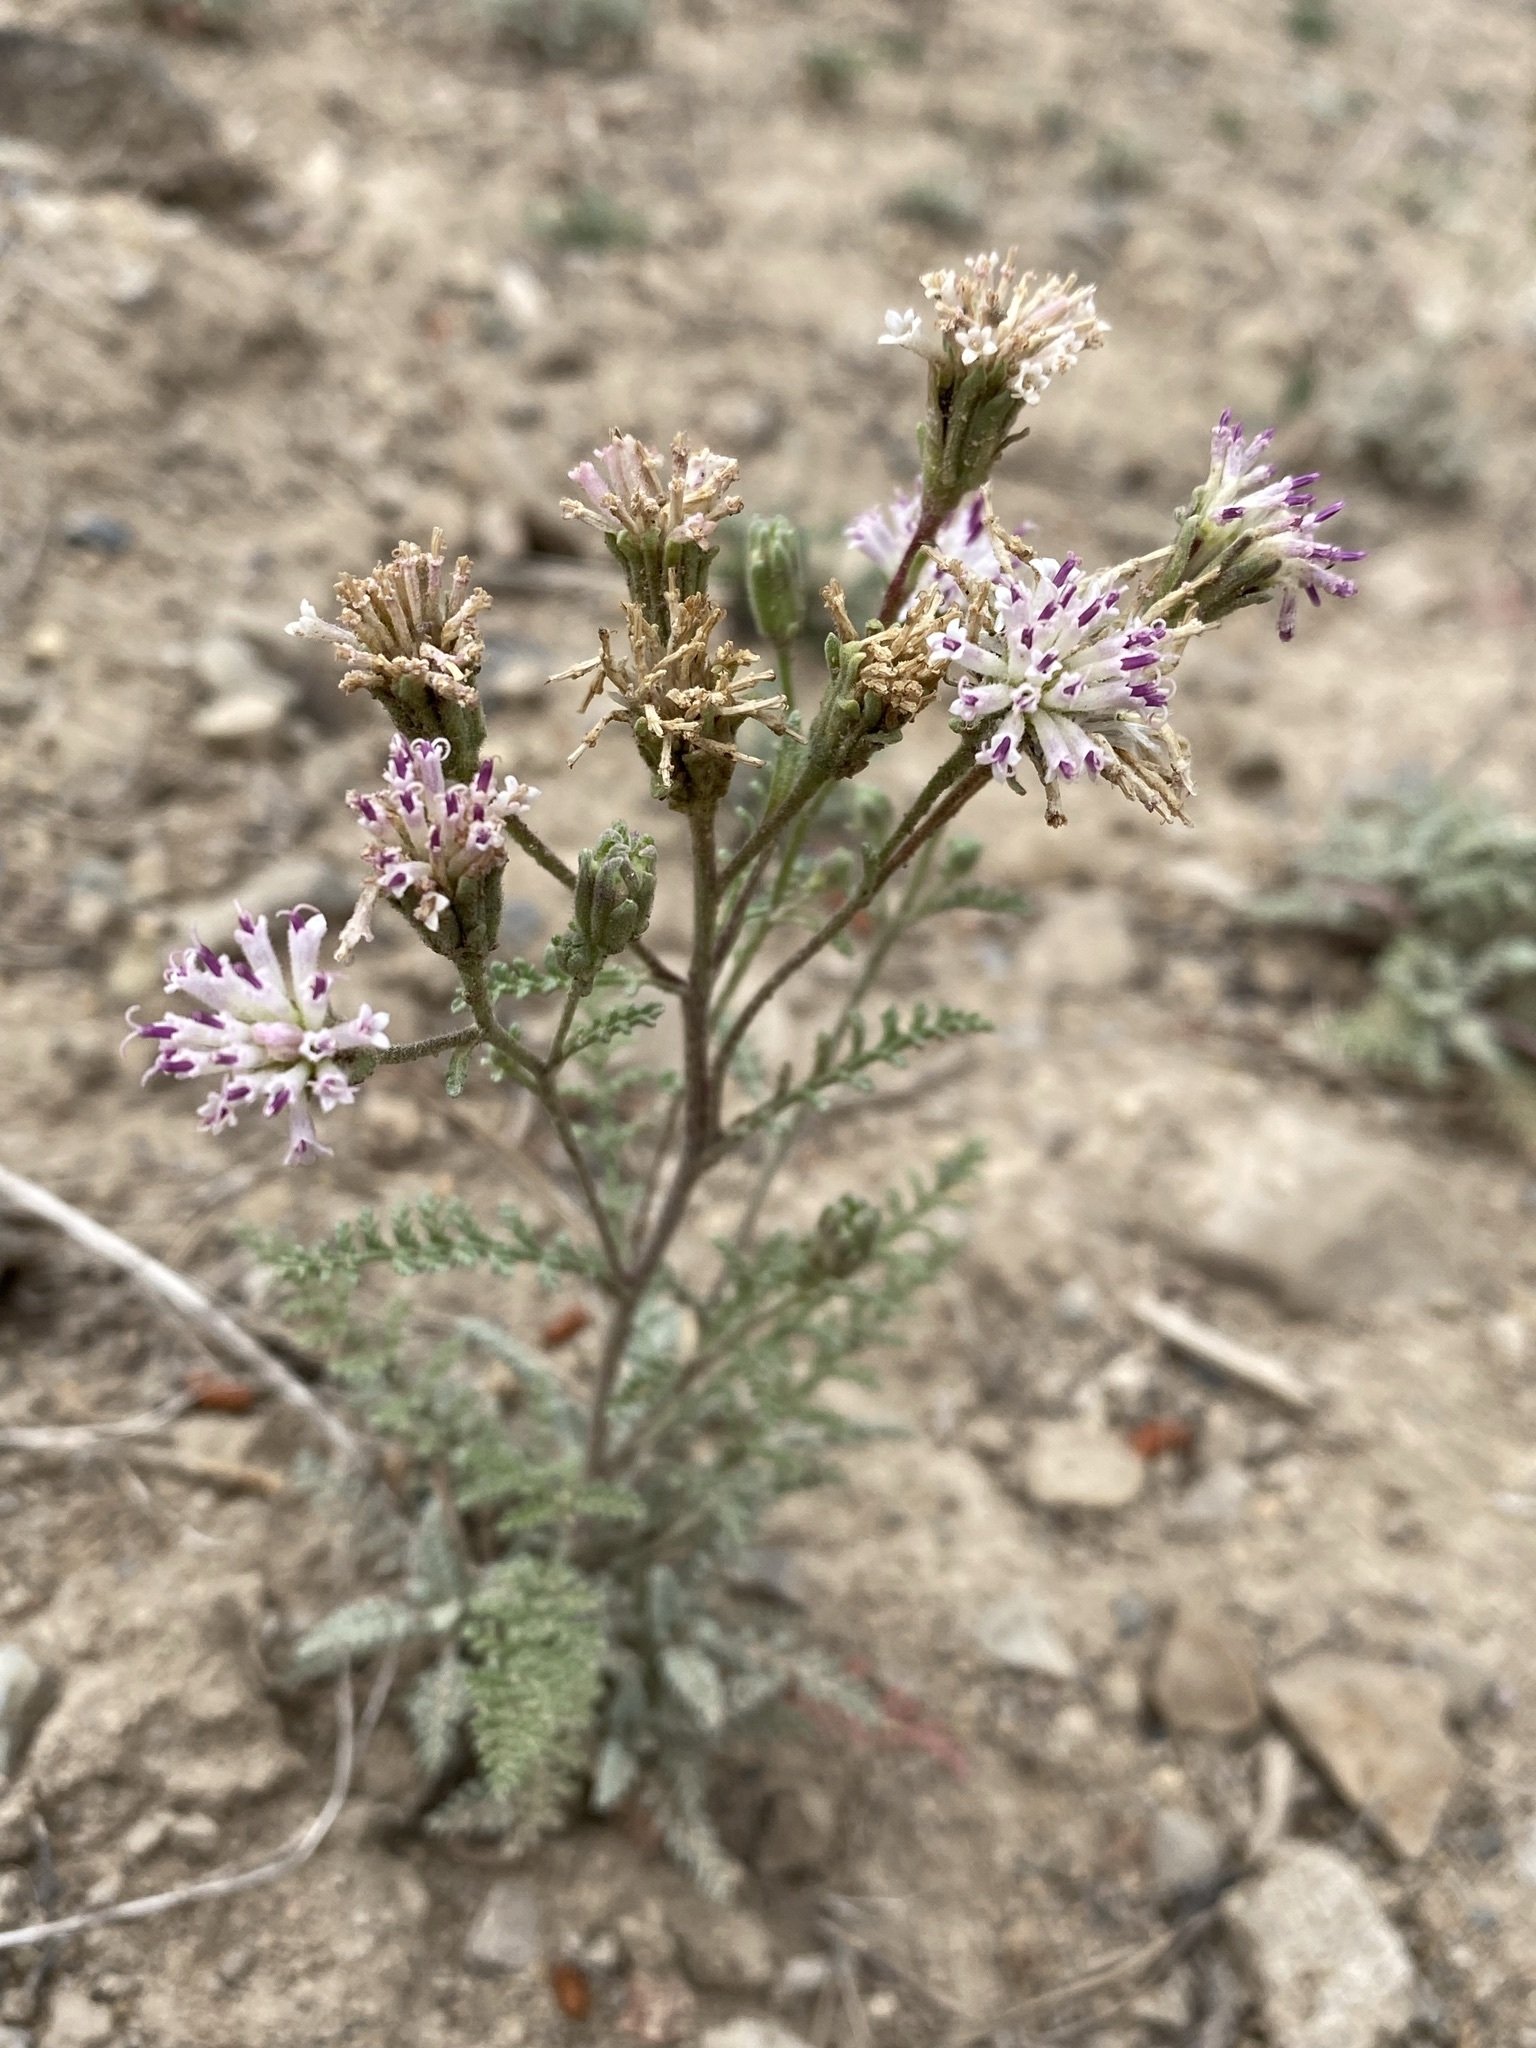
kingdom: Plantae
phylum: Tracheophyta
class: Magnoliopsida
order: Asterales
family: Asteraceae
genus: Chaenactis
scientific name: Chaenactis douglasii
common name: Hoary pincushion
